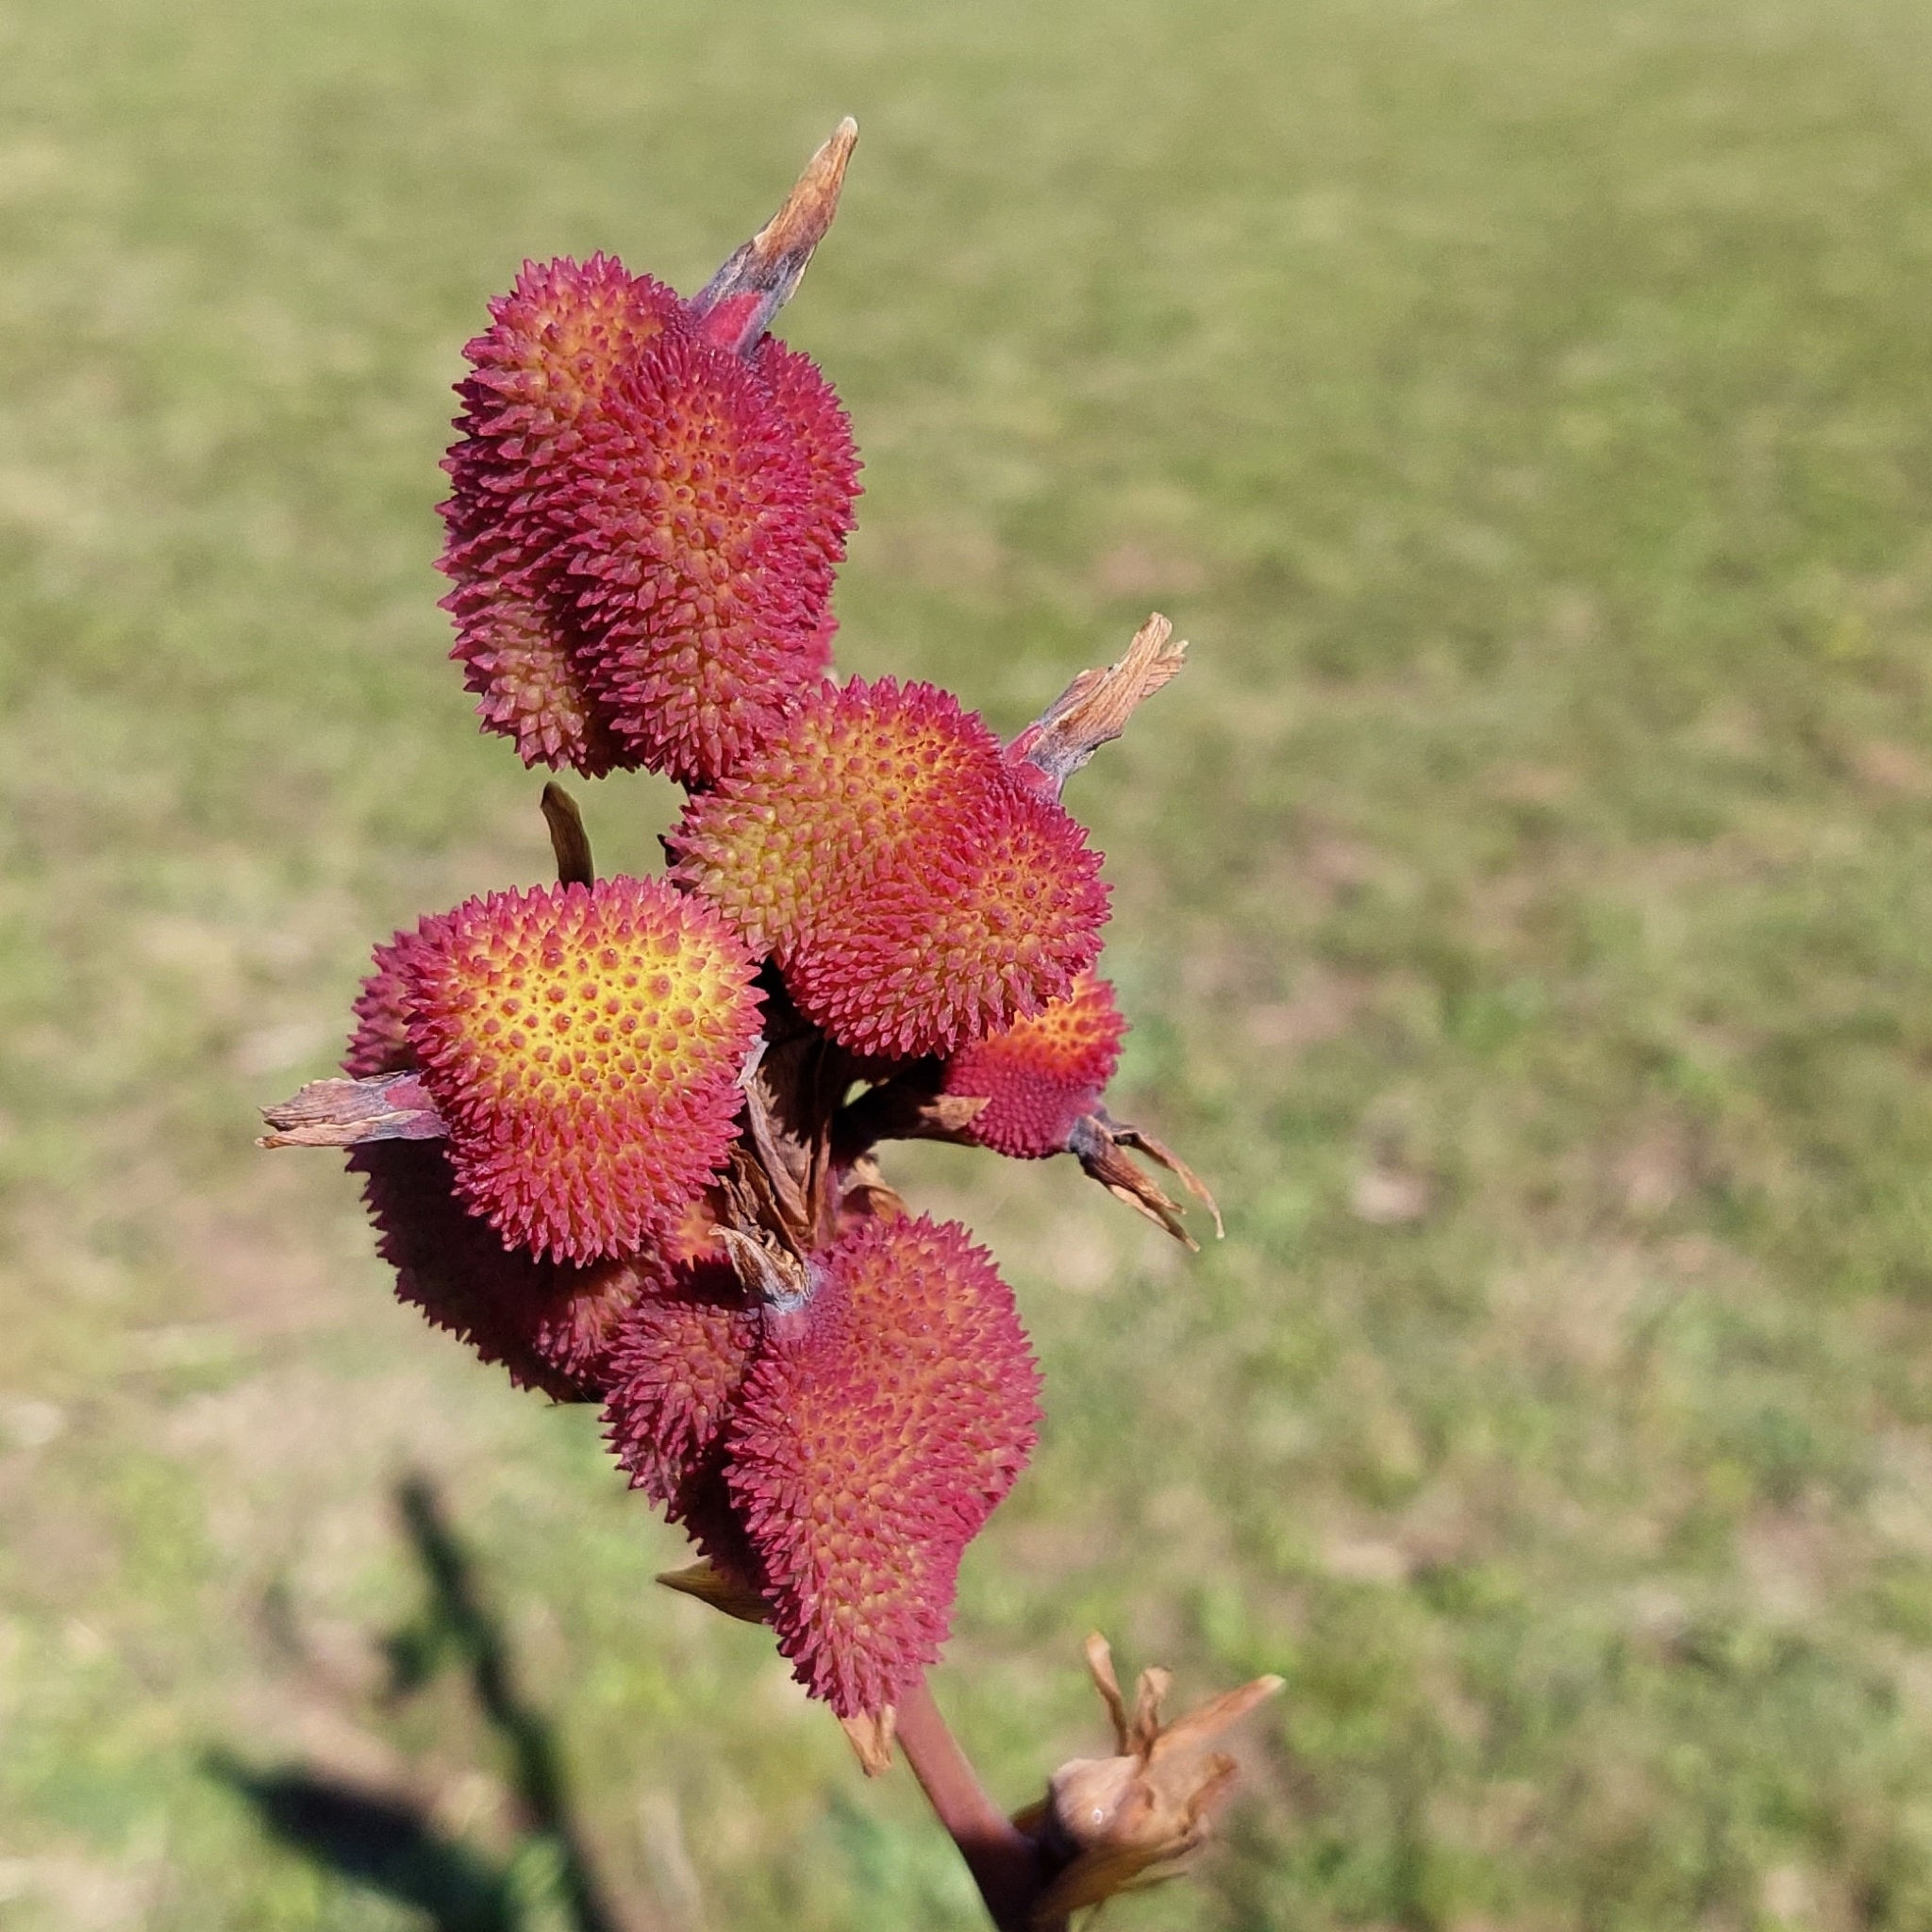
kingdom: Plantae
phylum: Tracheophyta
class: Liliopsida
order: Zingiberales
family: Cannaceae
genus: Canna
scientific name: Canna indica
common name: Indian shot
